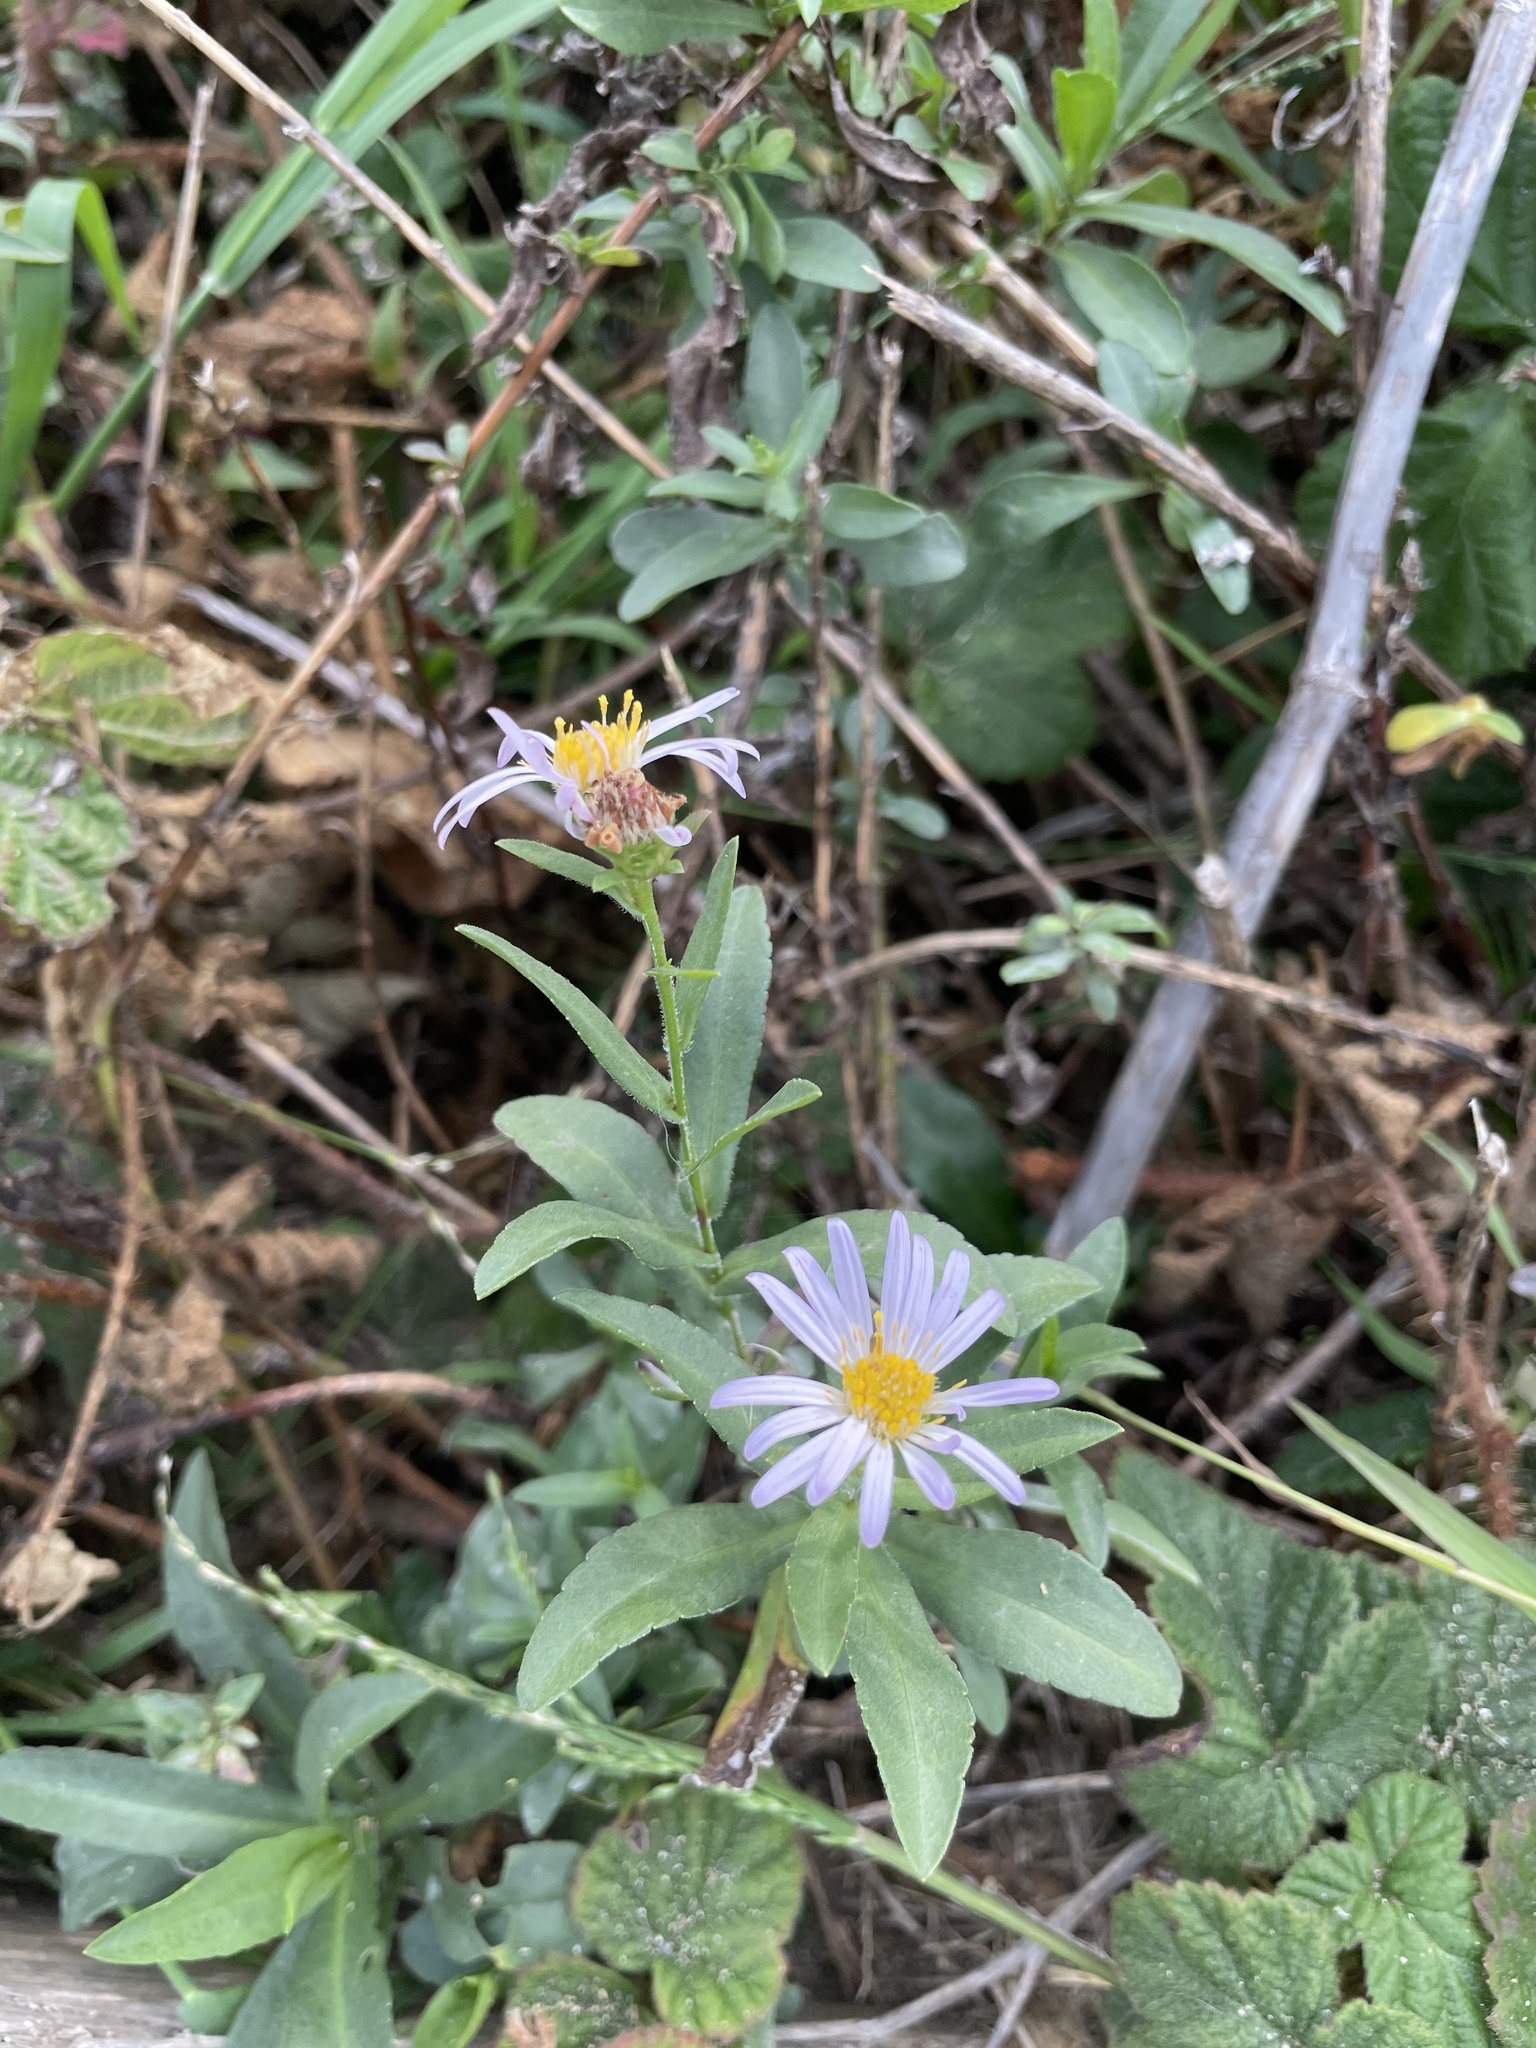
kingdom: Plantae
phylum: Tracheophyta
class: Magnoliopsida
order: Asterales
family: Asteraceae
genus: Symphyotrichum
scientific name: Symphyotrichum chilense
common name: Pacific aster
